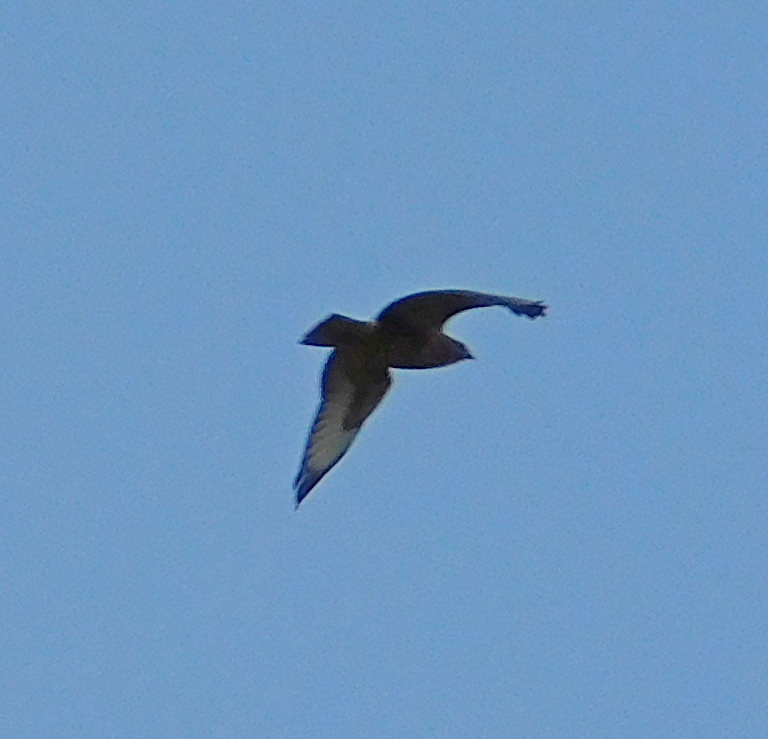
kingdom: Animalia
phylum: Chordata
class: Aves
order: Accipitriformes
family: Accipitridae
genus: Buteo
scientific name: Buteo buteo
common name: Common buzzard
